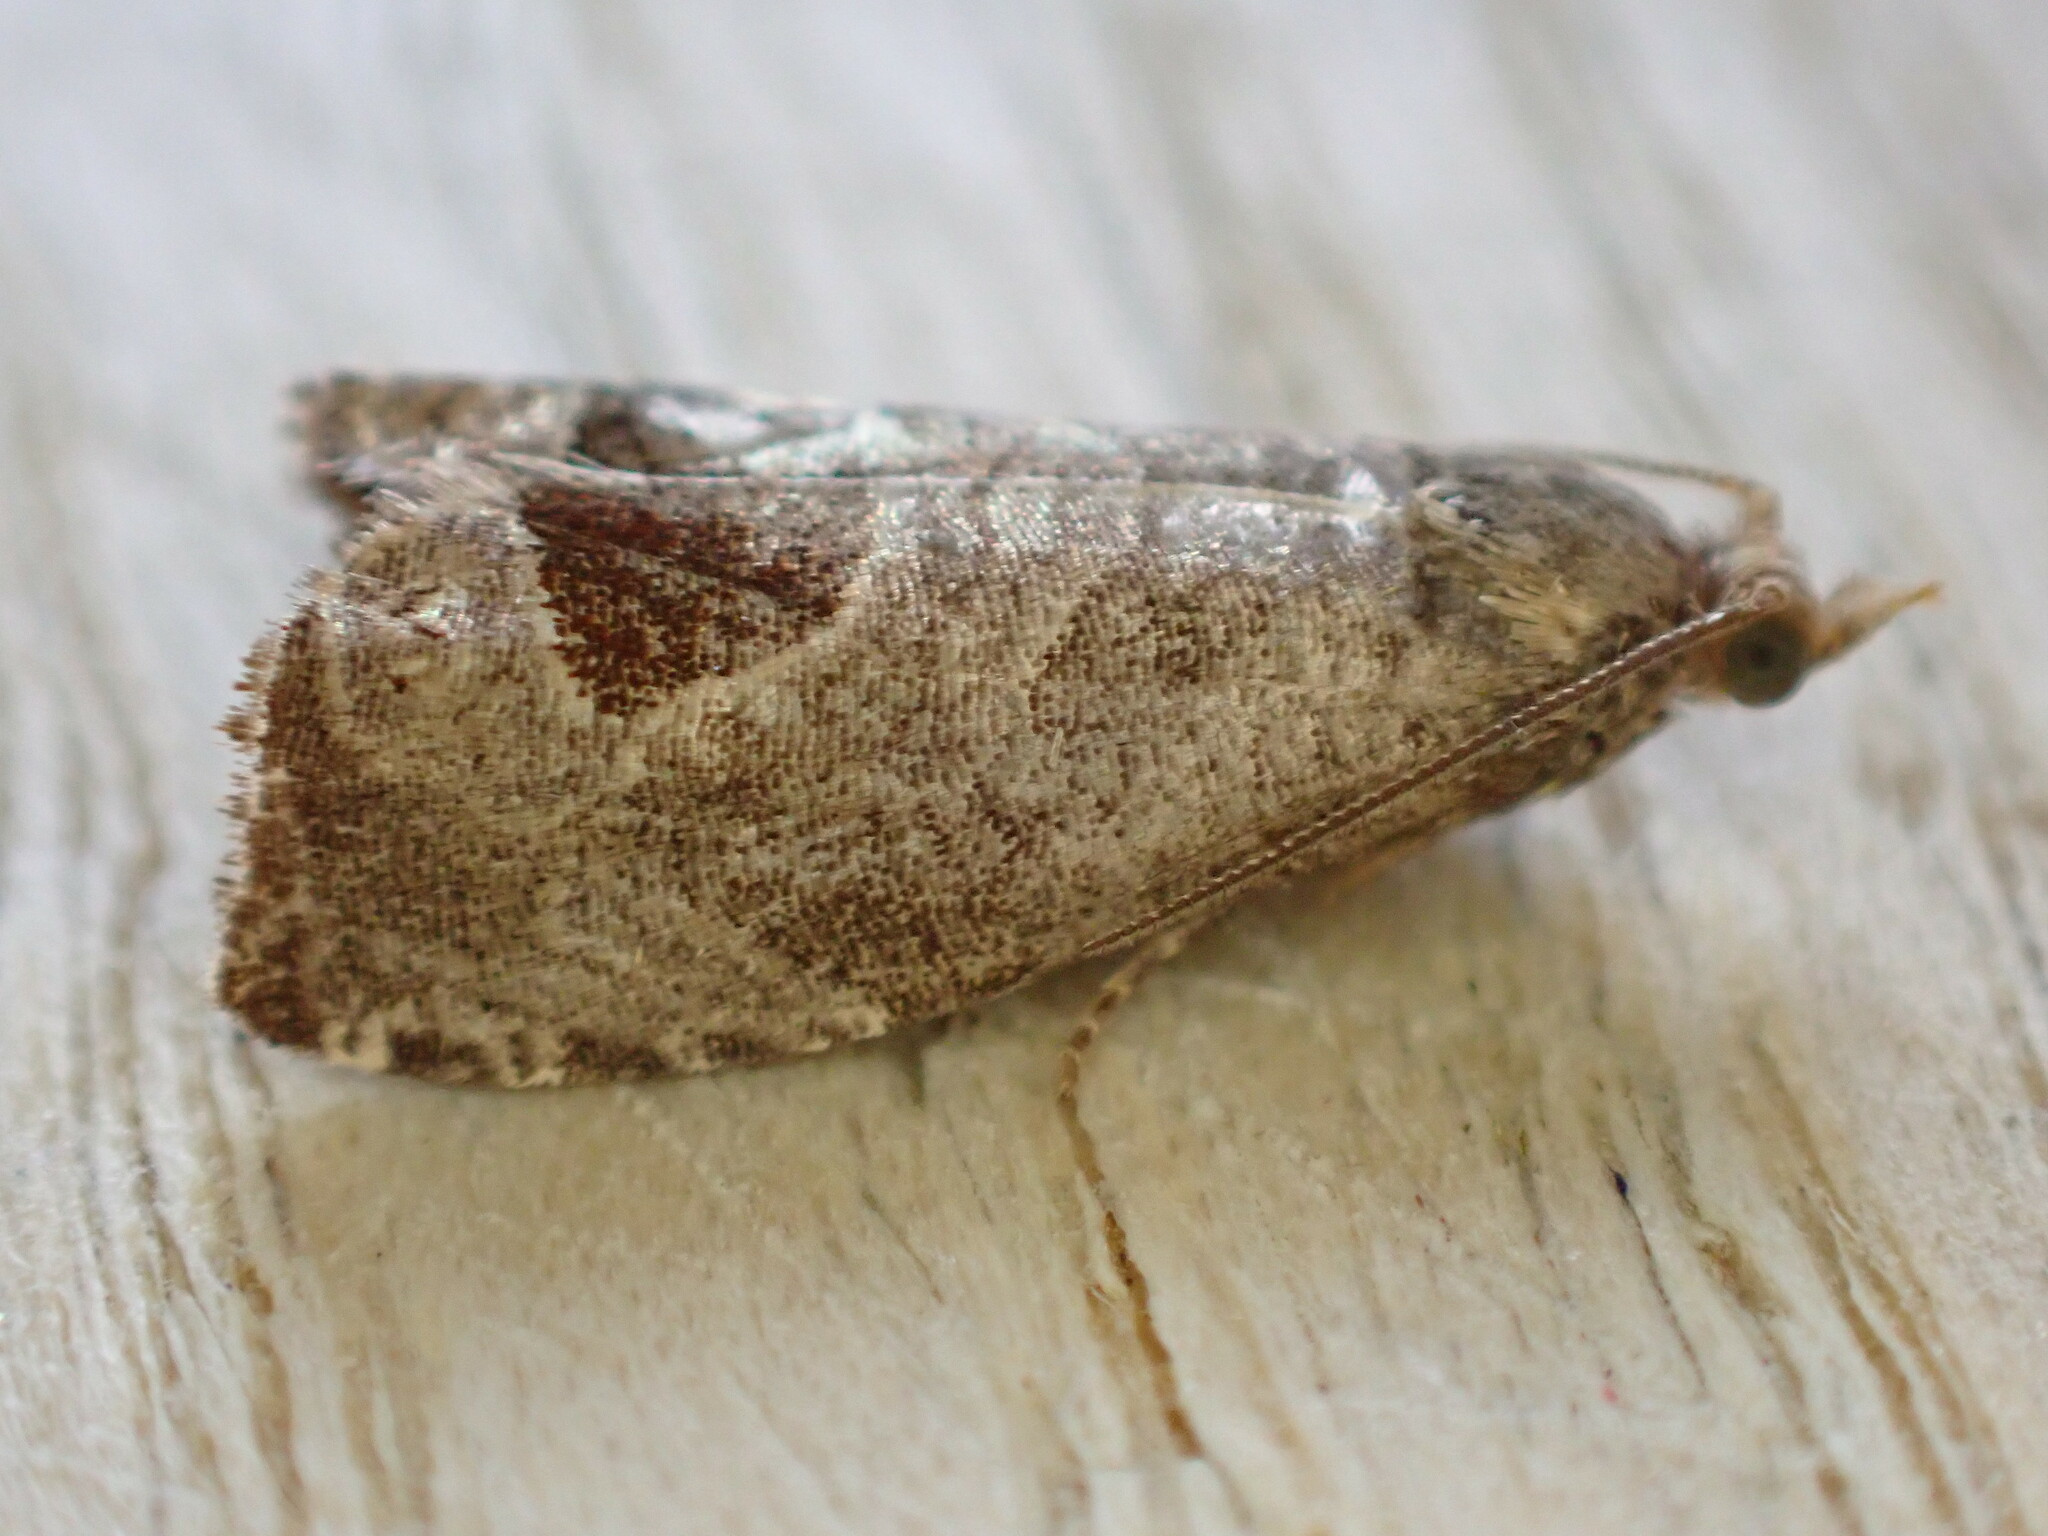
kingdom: Animalia
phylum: Arthropoda
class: Insecta
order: Lepidoptera
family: Tortricidae
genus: Notocelia
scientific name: Notocelia uddmanniana
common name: Bramble shoot moth
